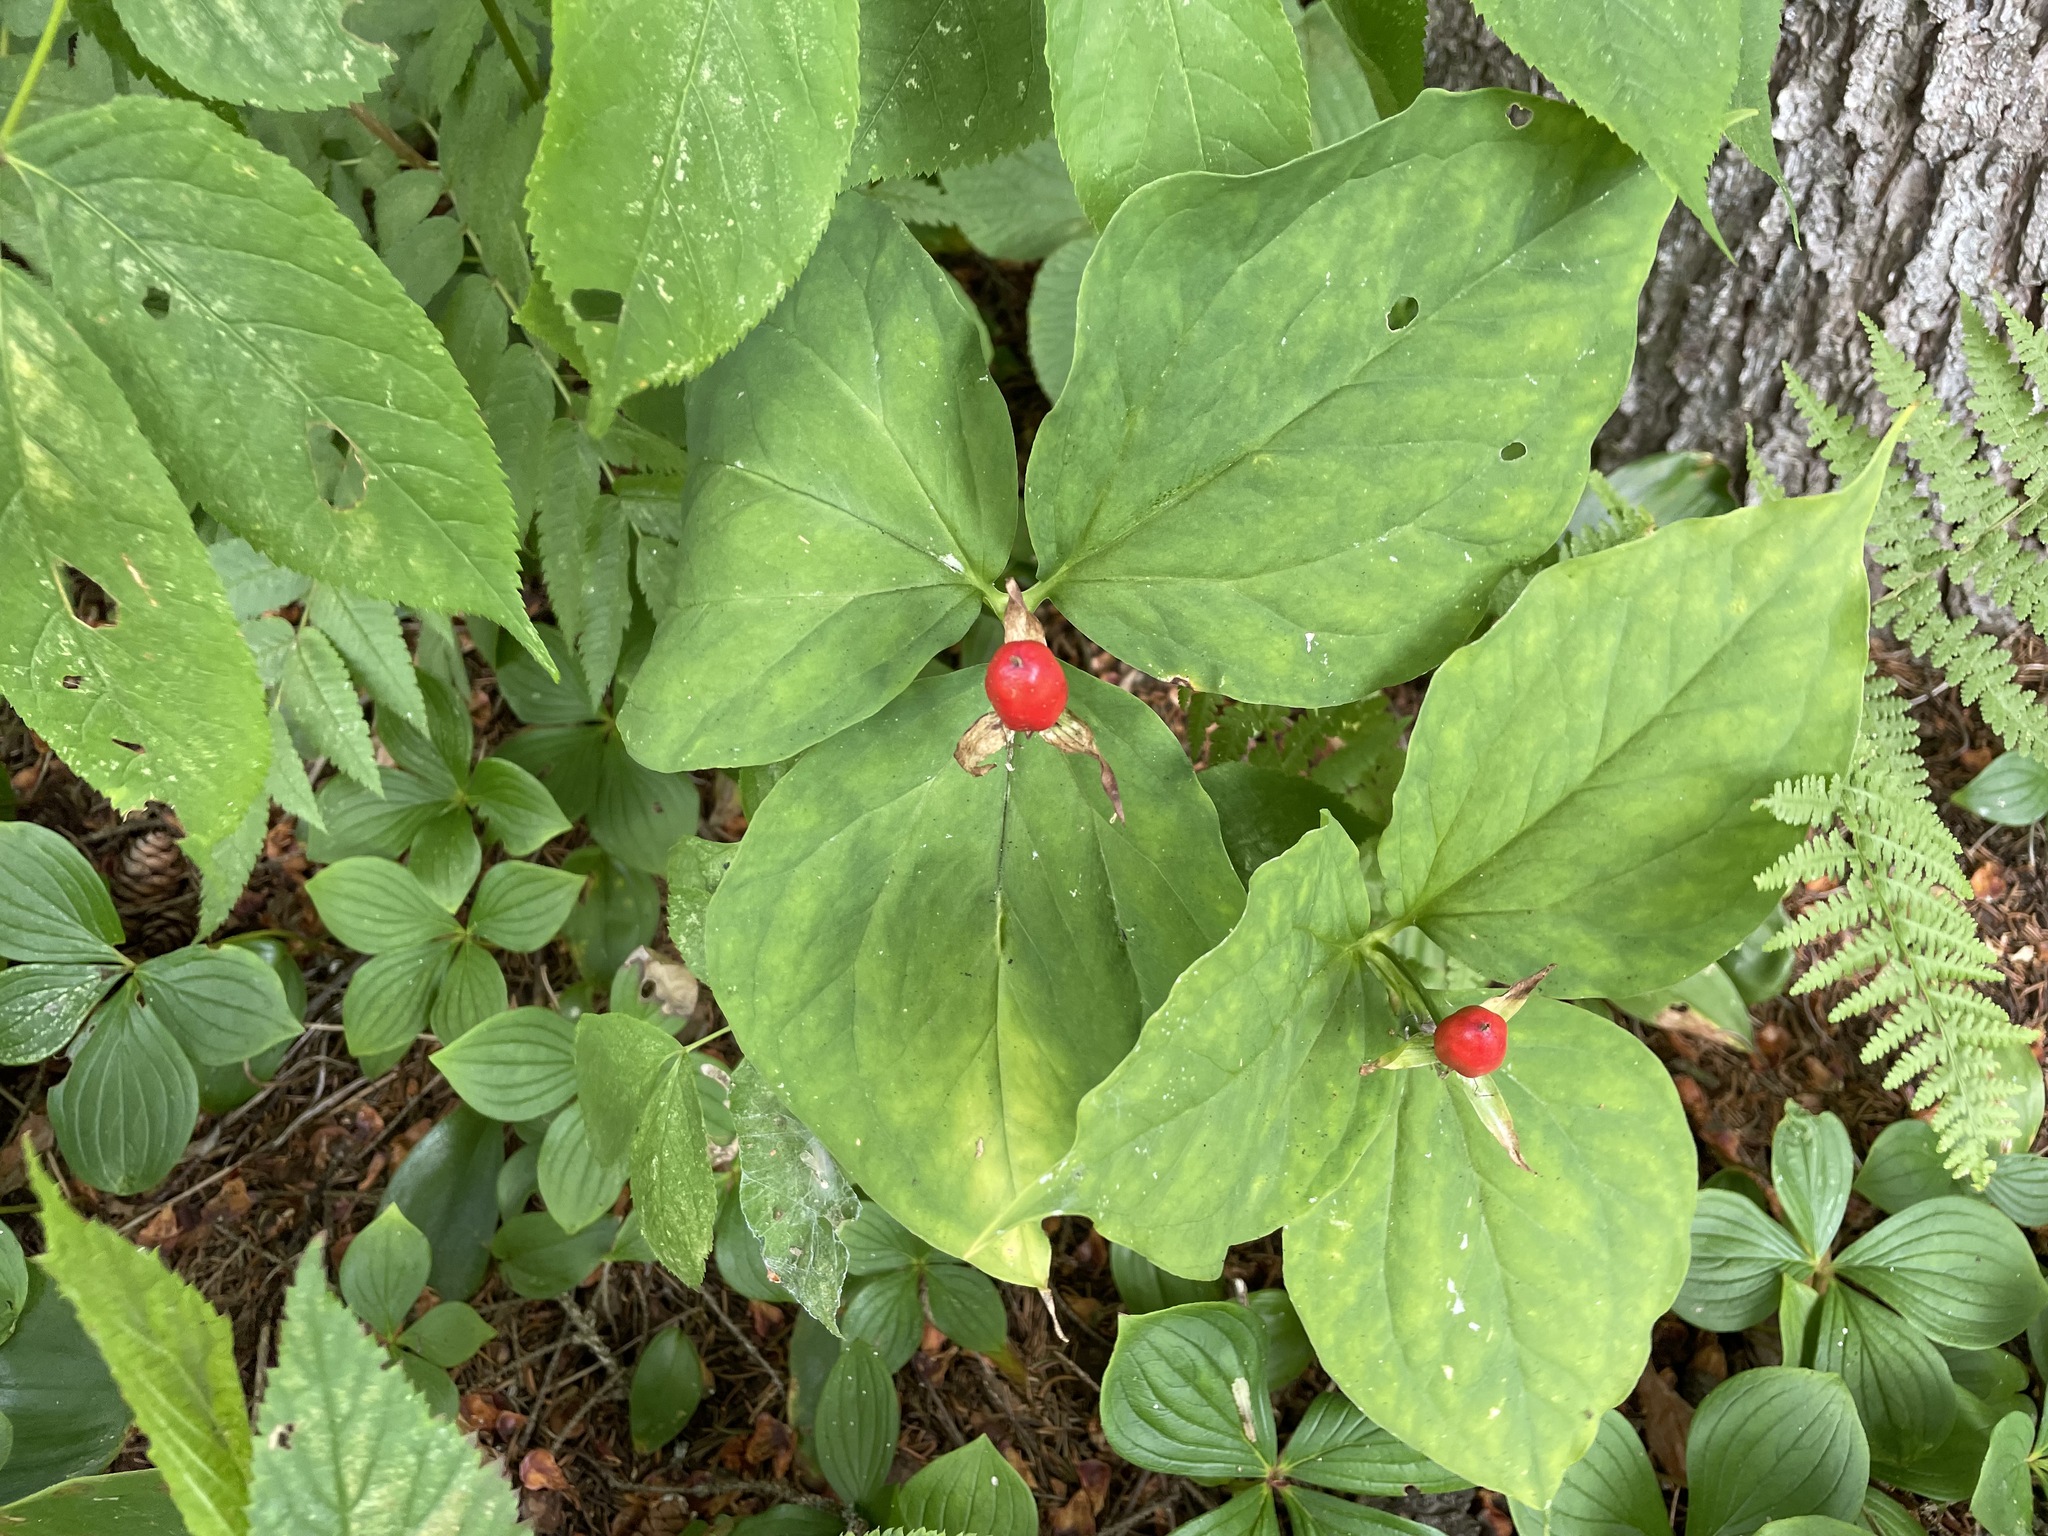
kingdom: Plantae
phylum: Tracheophyta
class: Liliopsida
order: Liliales
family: Melanthiaceae
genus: Trillium
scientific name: Trillium undulatum
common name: Paint trillium
